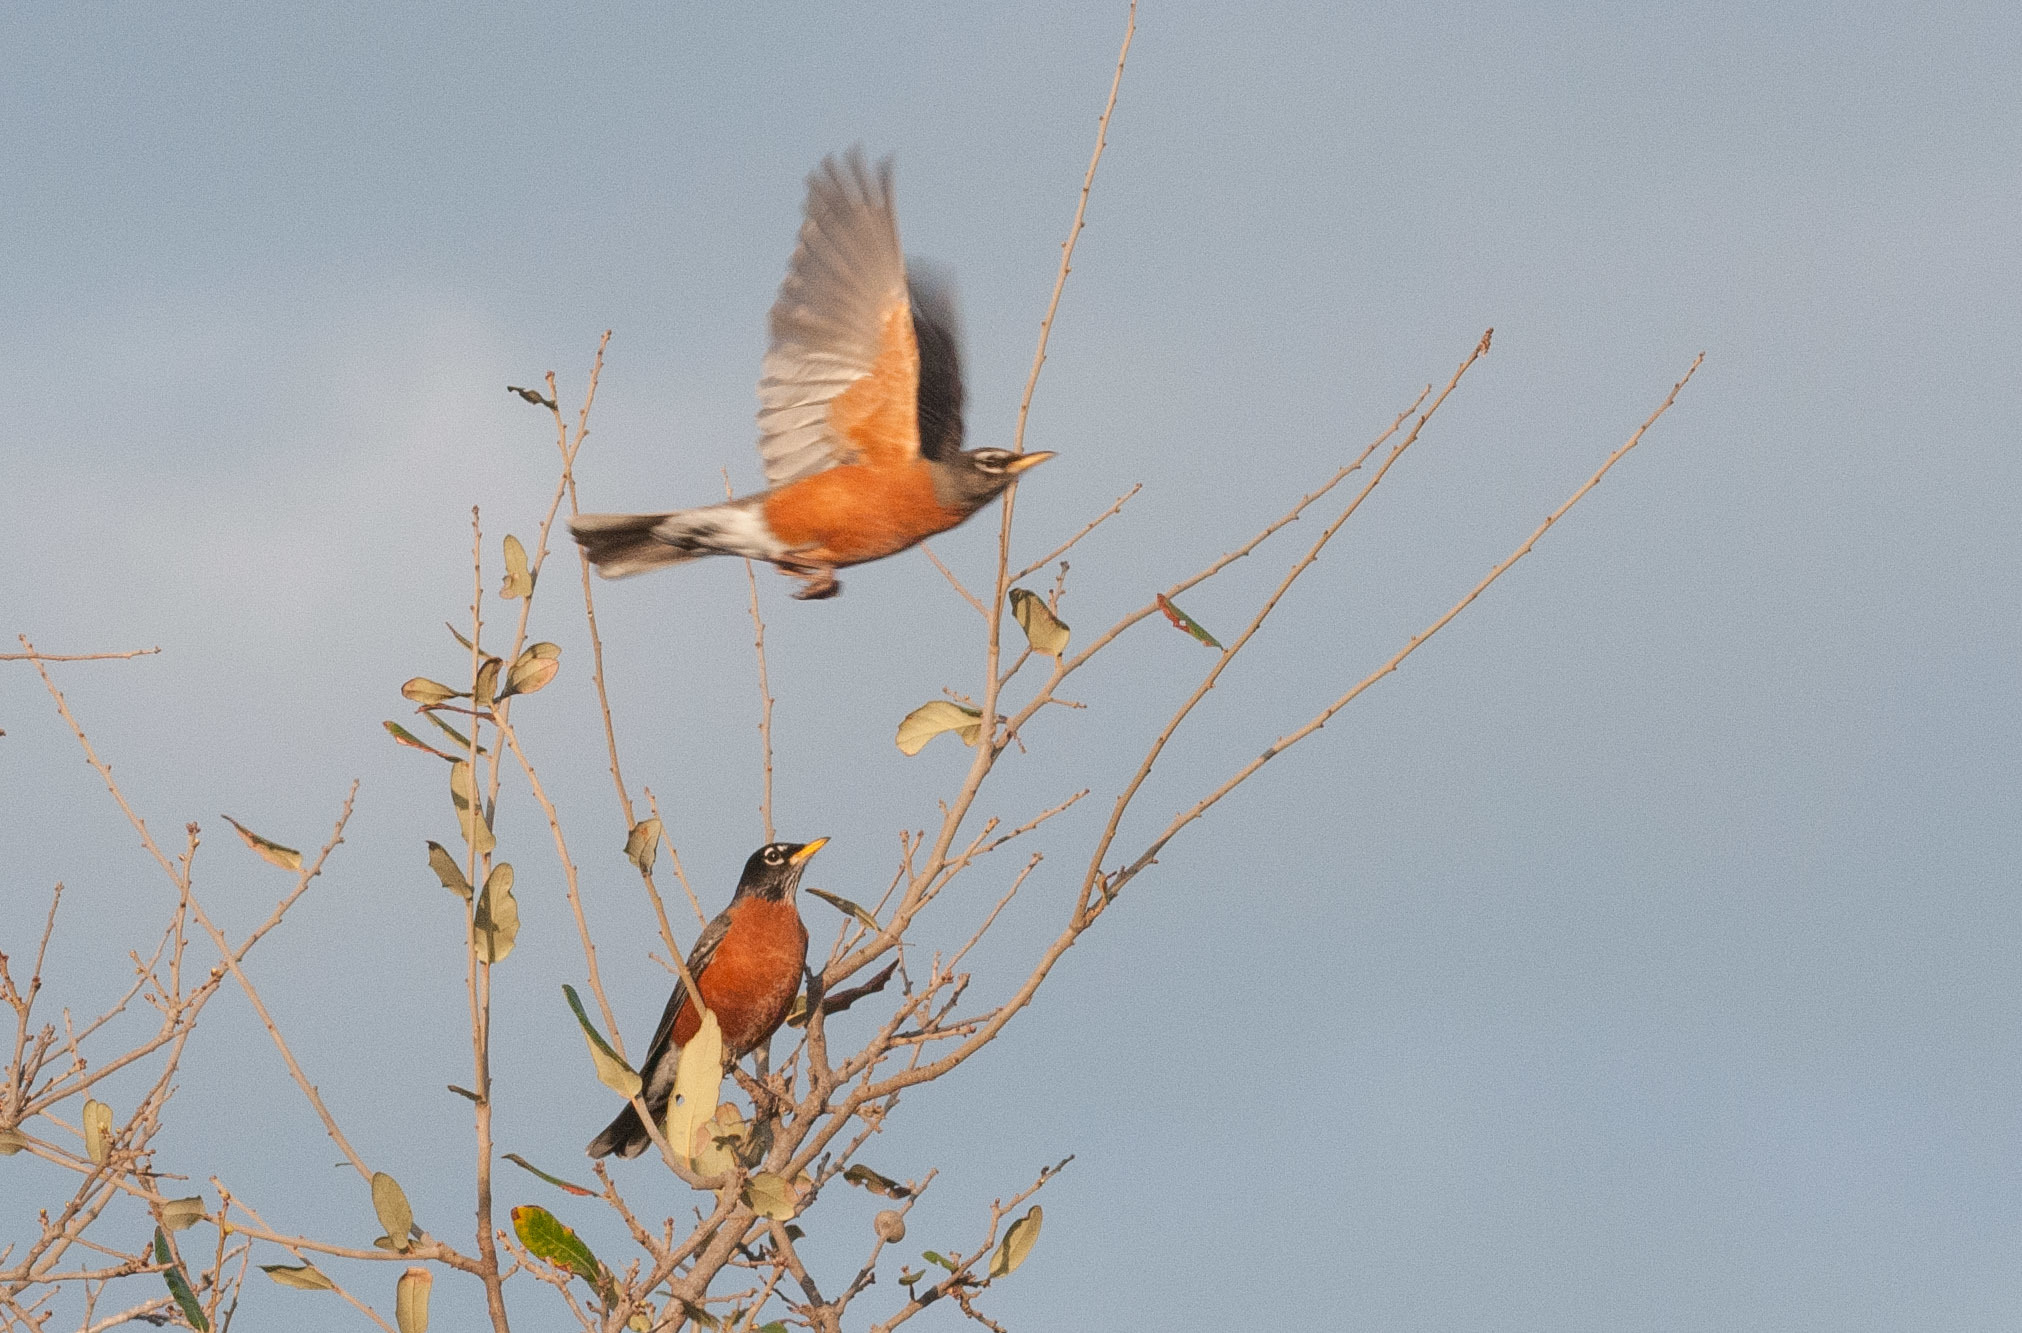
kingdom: Animalia
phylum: Chordata
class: Aves
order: Passeriformes
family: Turdidae
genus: Turdus
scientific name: Turdus migratorius
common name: American robin
